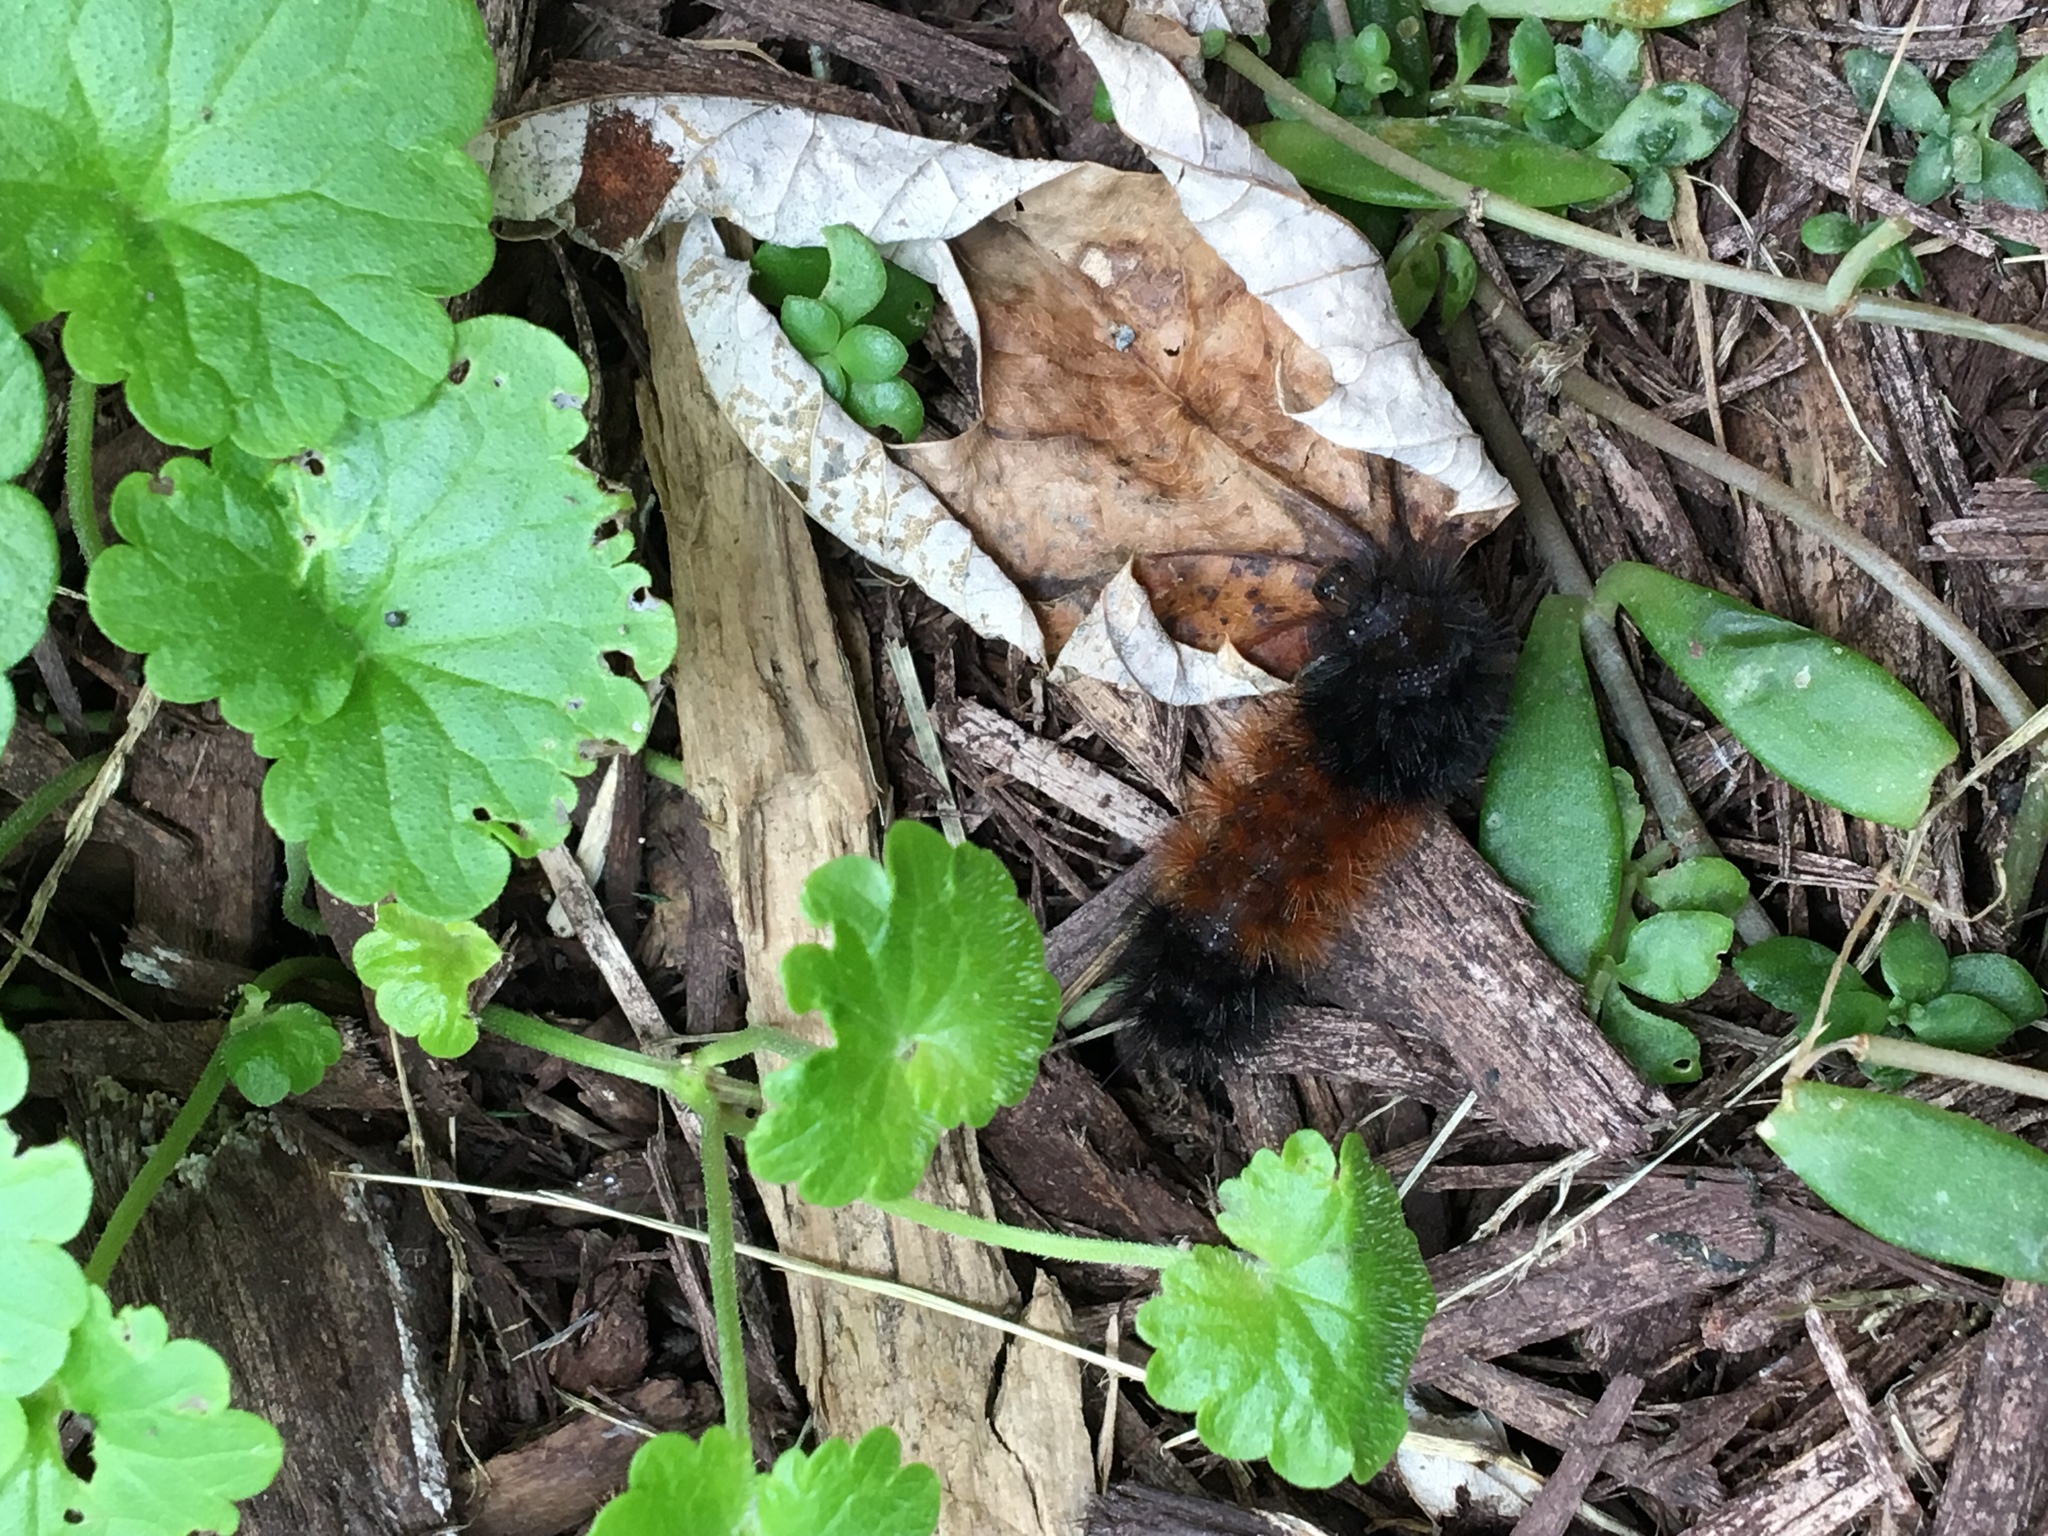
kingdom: Animalia
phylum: Arthropoda
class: Insecta
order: Lepidoptera
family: Erebidae
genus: Pyrrharctia
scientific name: Pyrrharctia isabella
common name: Isabella tiger moth
